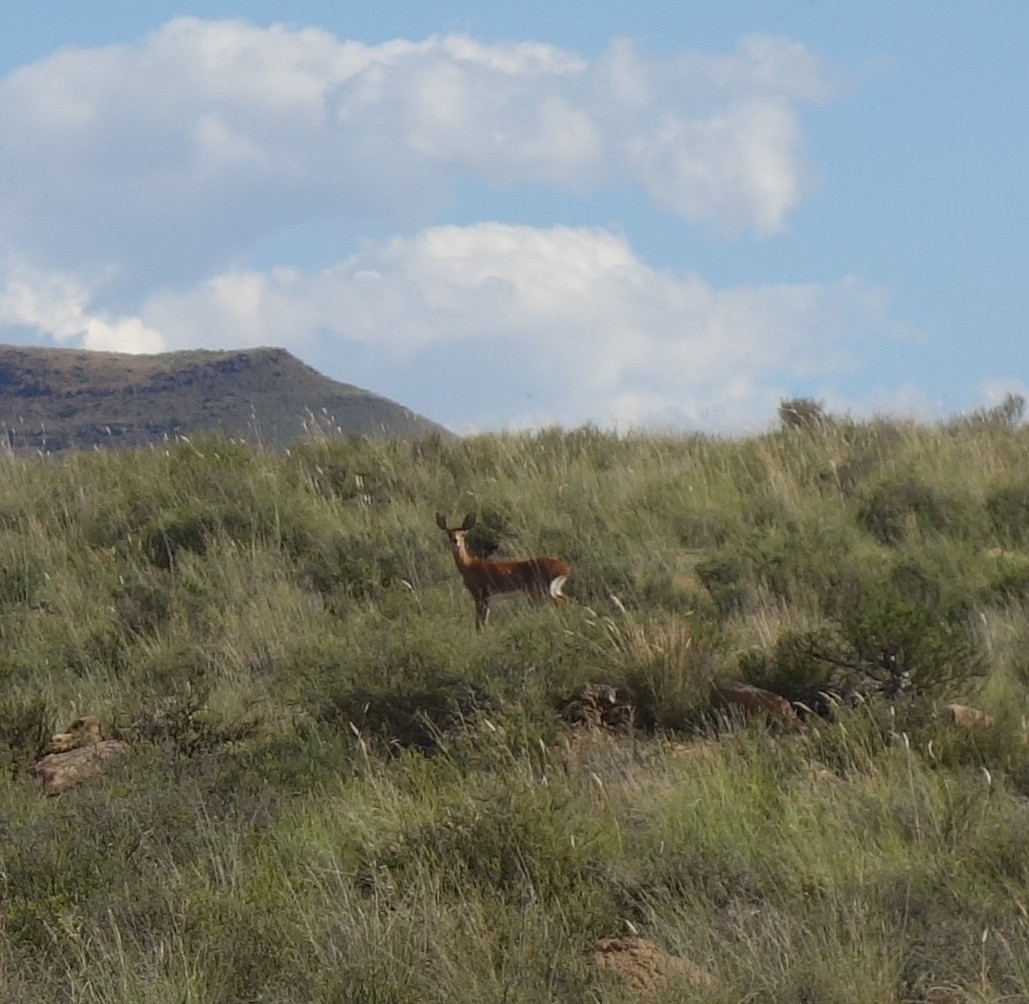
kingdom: Animalia
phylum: Chordata
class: Mammalia
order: Artiodactyla
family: Bovidae
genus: Raphicerus
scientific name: Raphicerus campestris
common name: Steenbok
